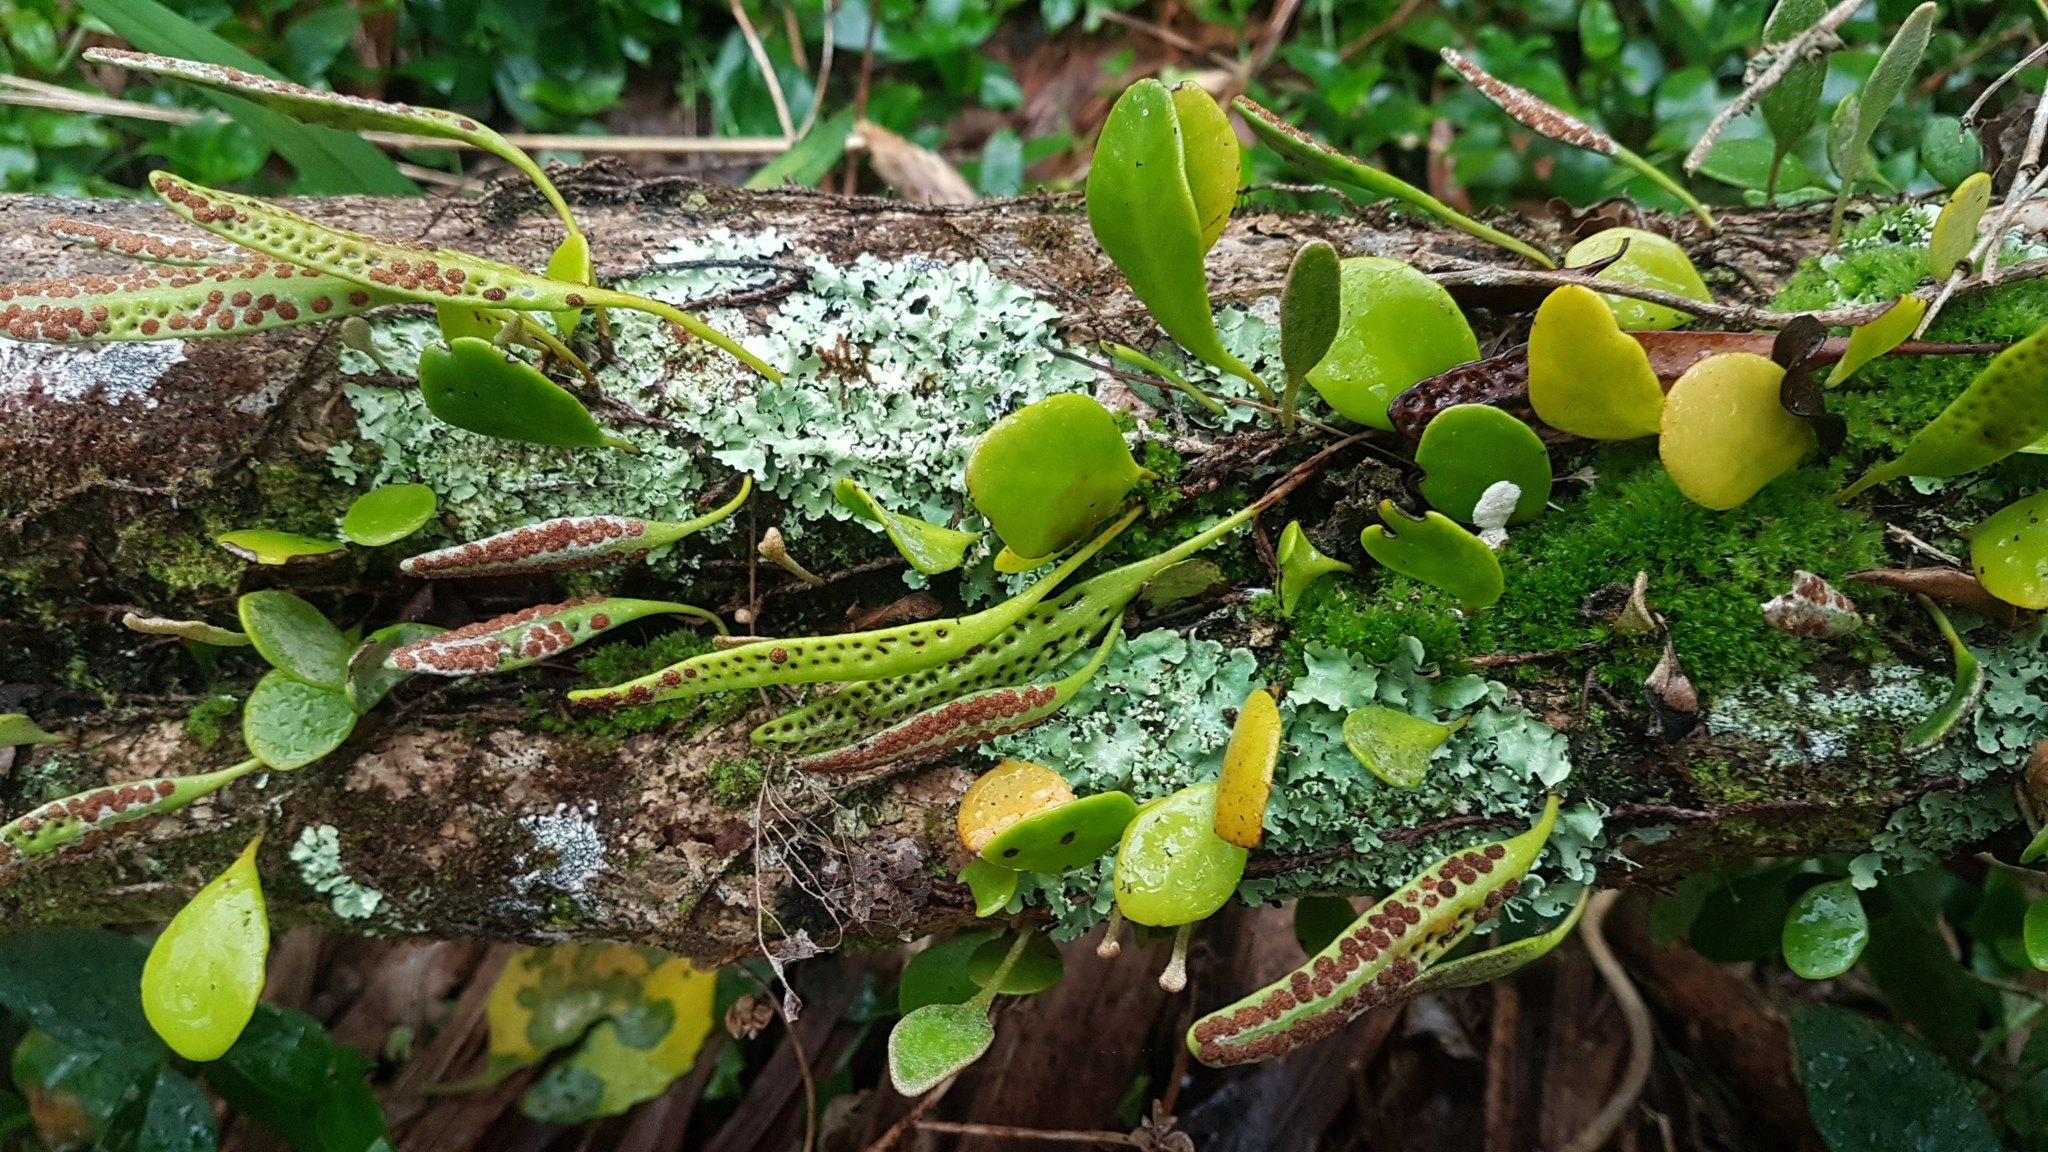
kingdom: Plantae
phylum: Tracheophyta
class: Polypodiopsida
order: Polypodiales
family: Polypodiaceae
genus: Pyrrosia
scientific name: Pyrrosia eleagnifolia
